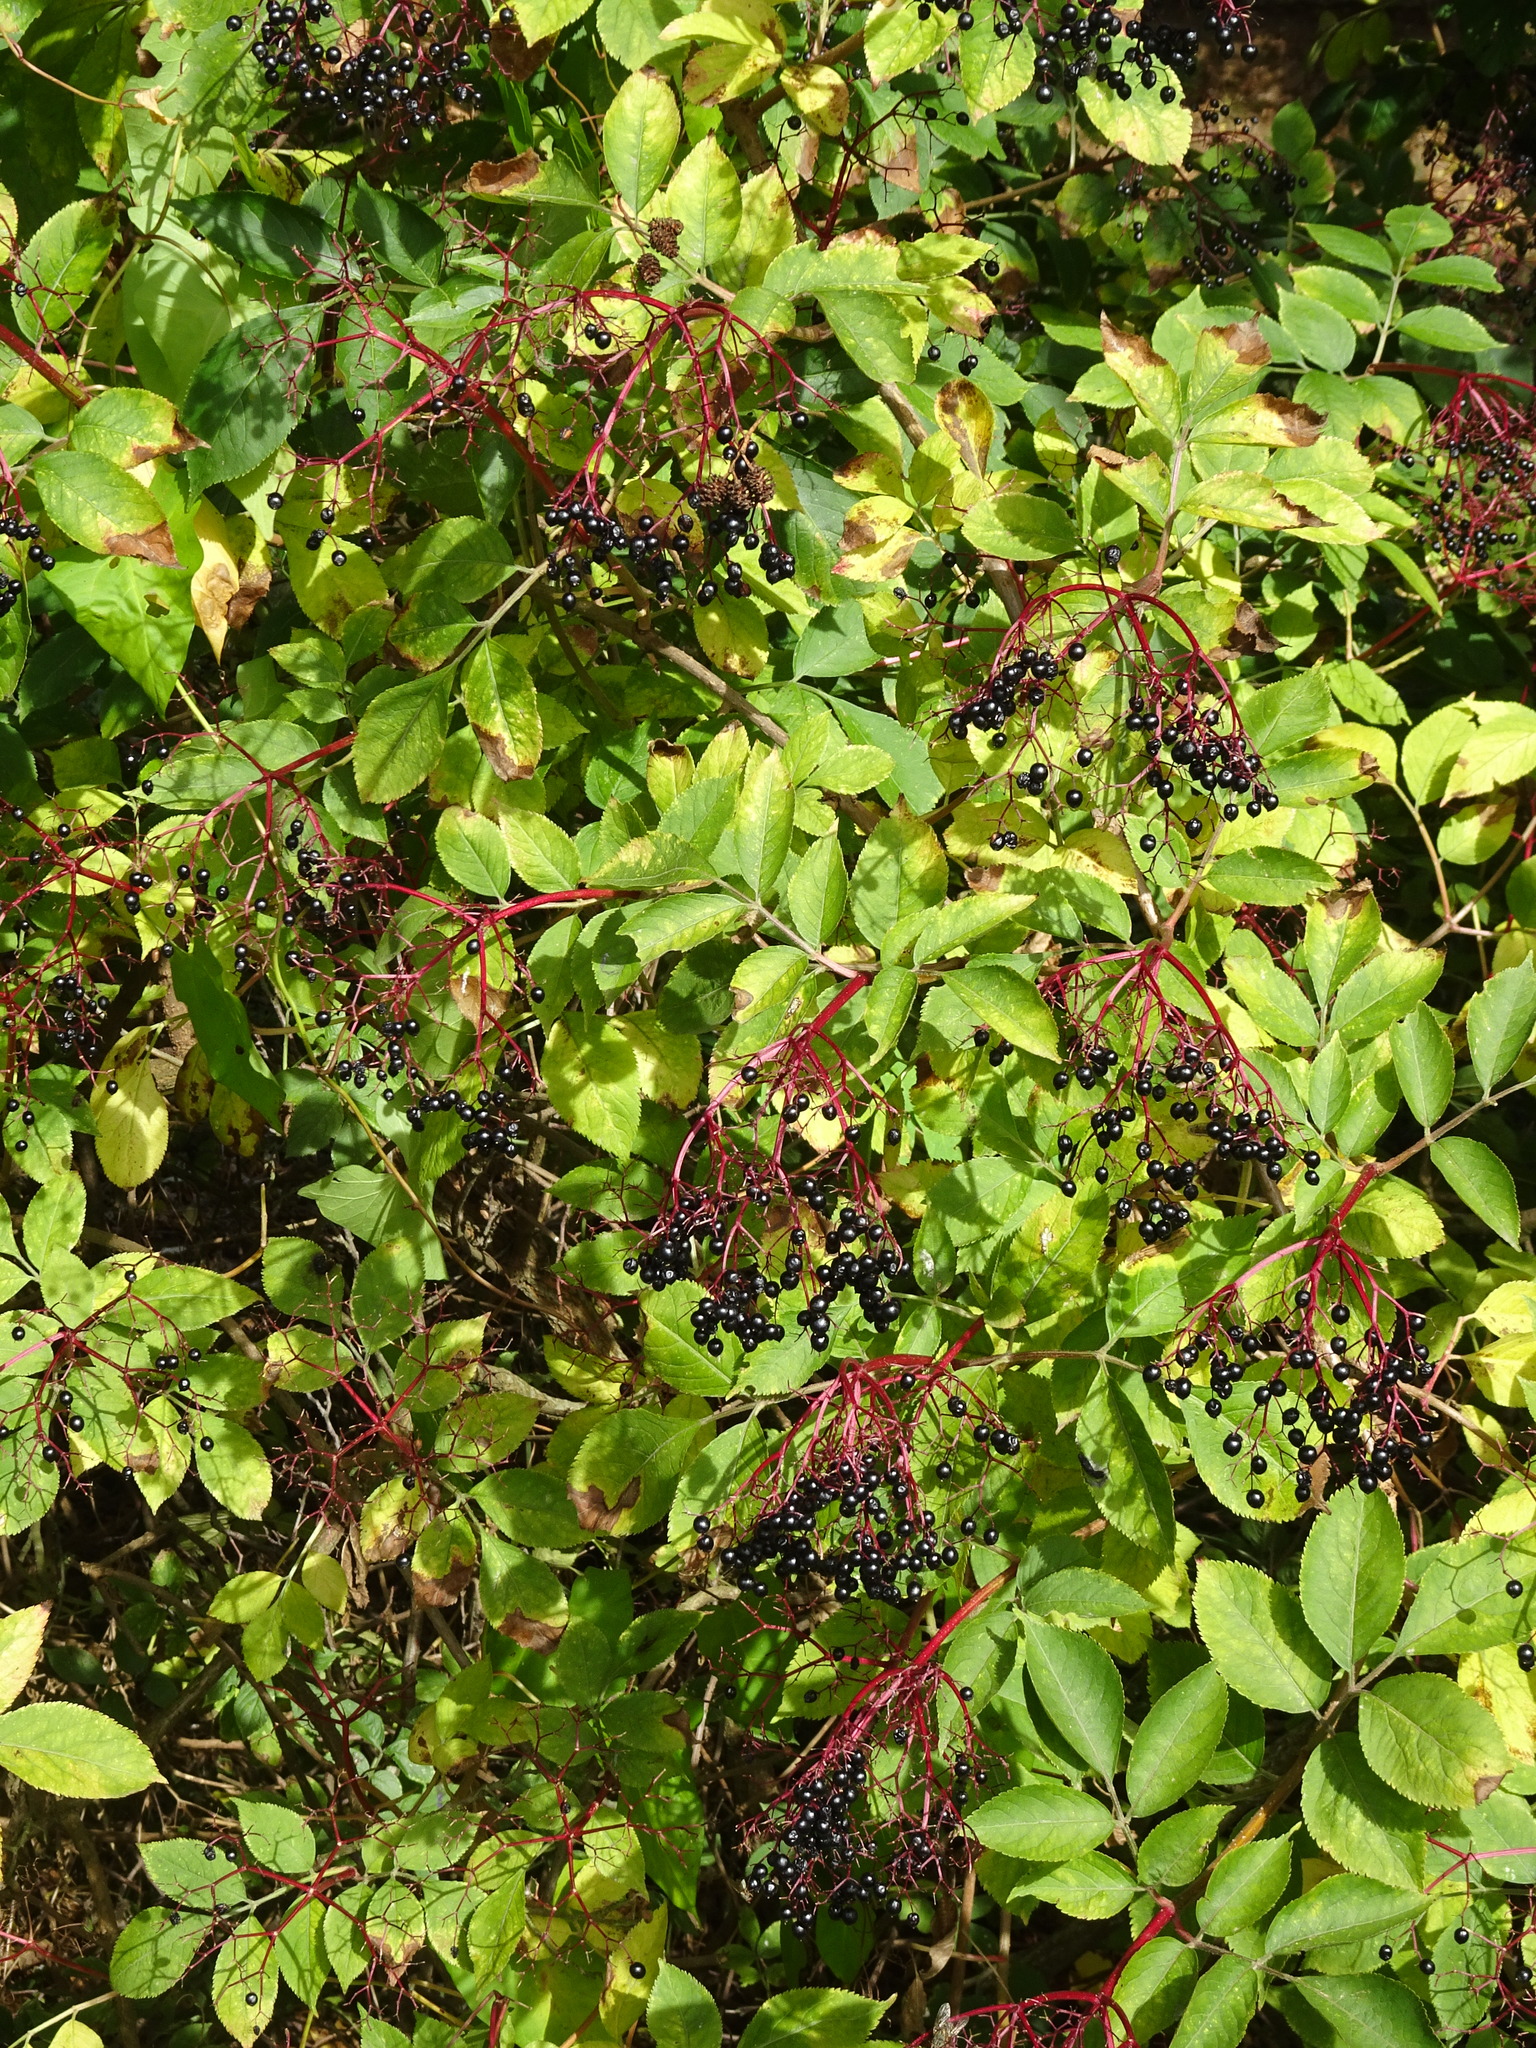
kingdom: Plantae
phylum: Tracheophyta
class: Magnoliopsida
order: Dipsacales
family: Viburnaceae
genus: Sambucus
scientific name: Sambucus nigra
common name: Elder
